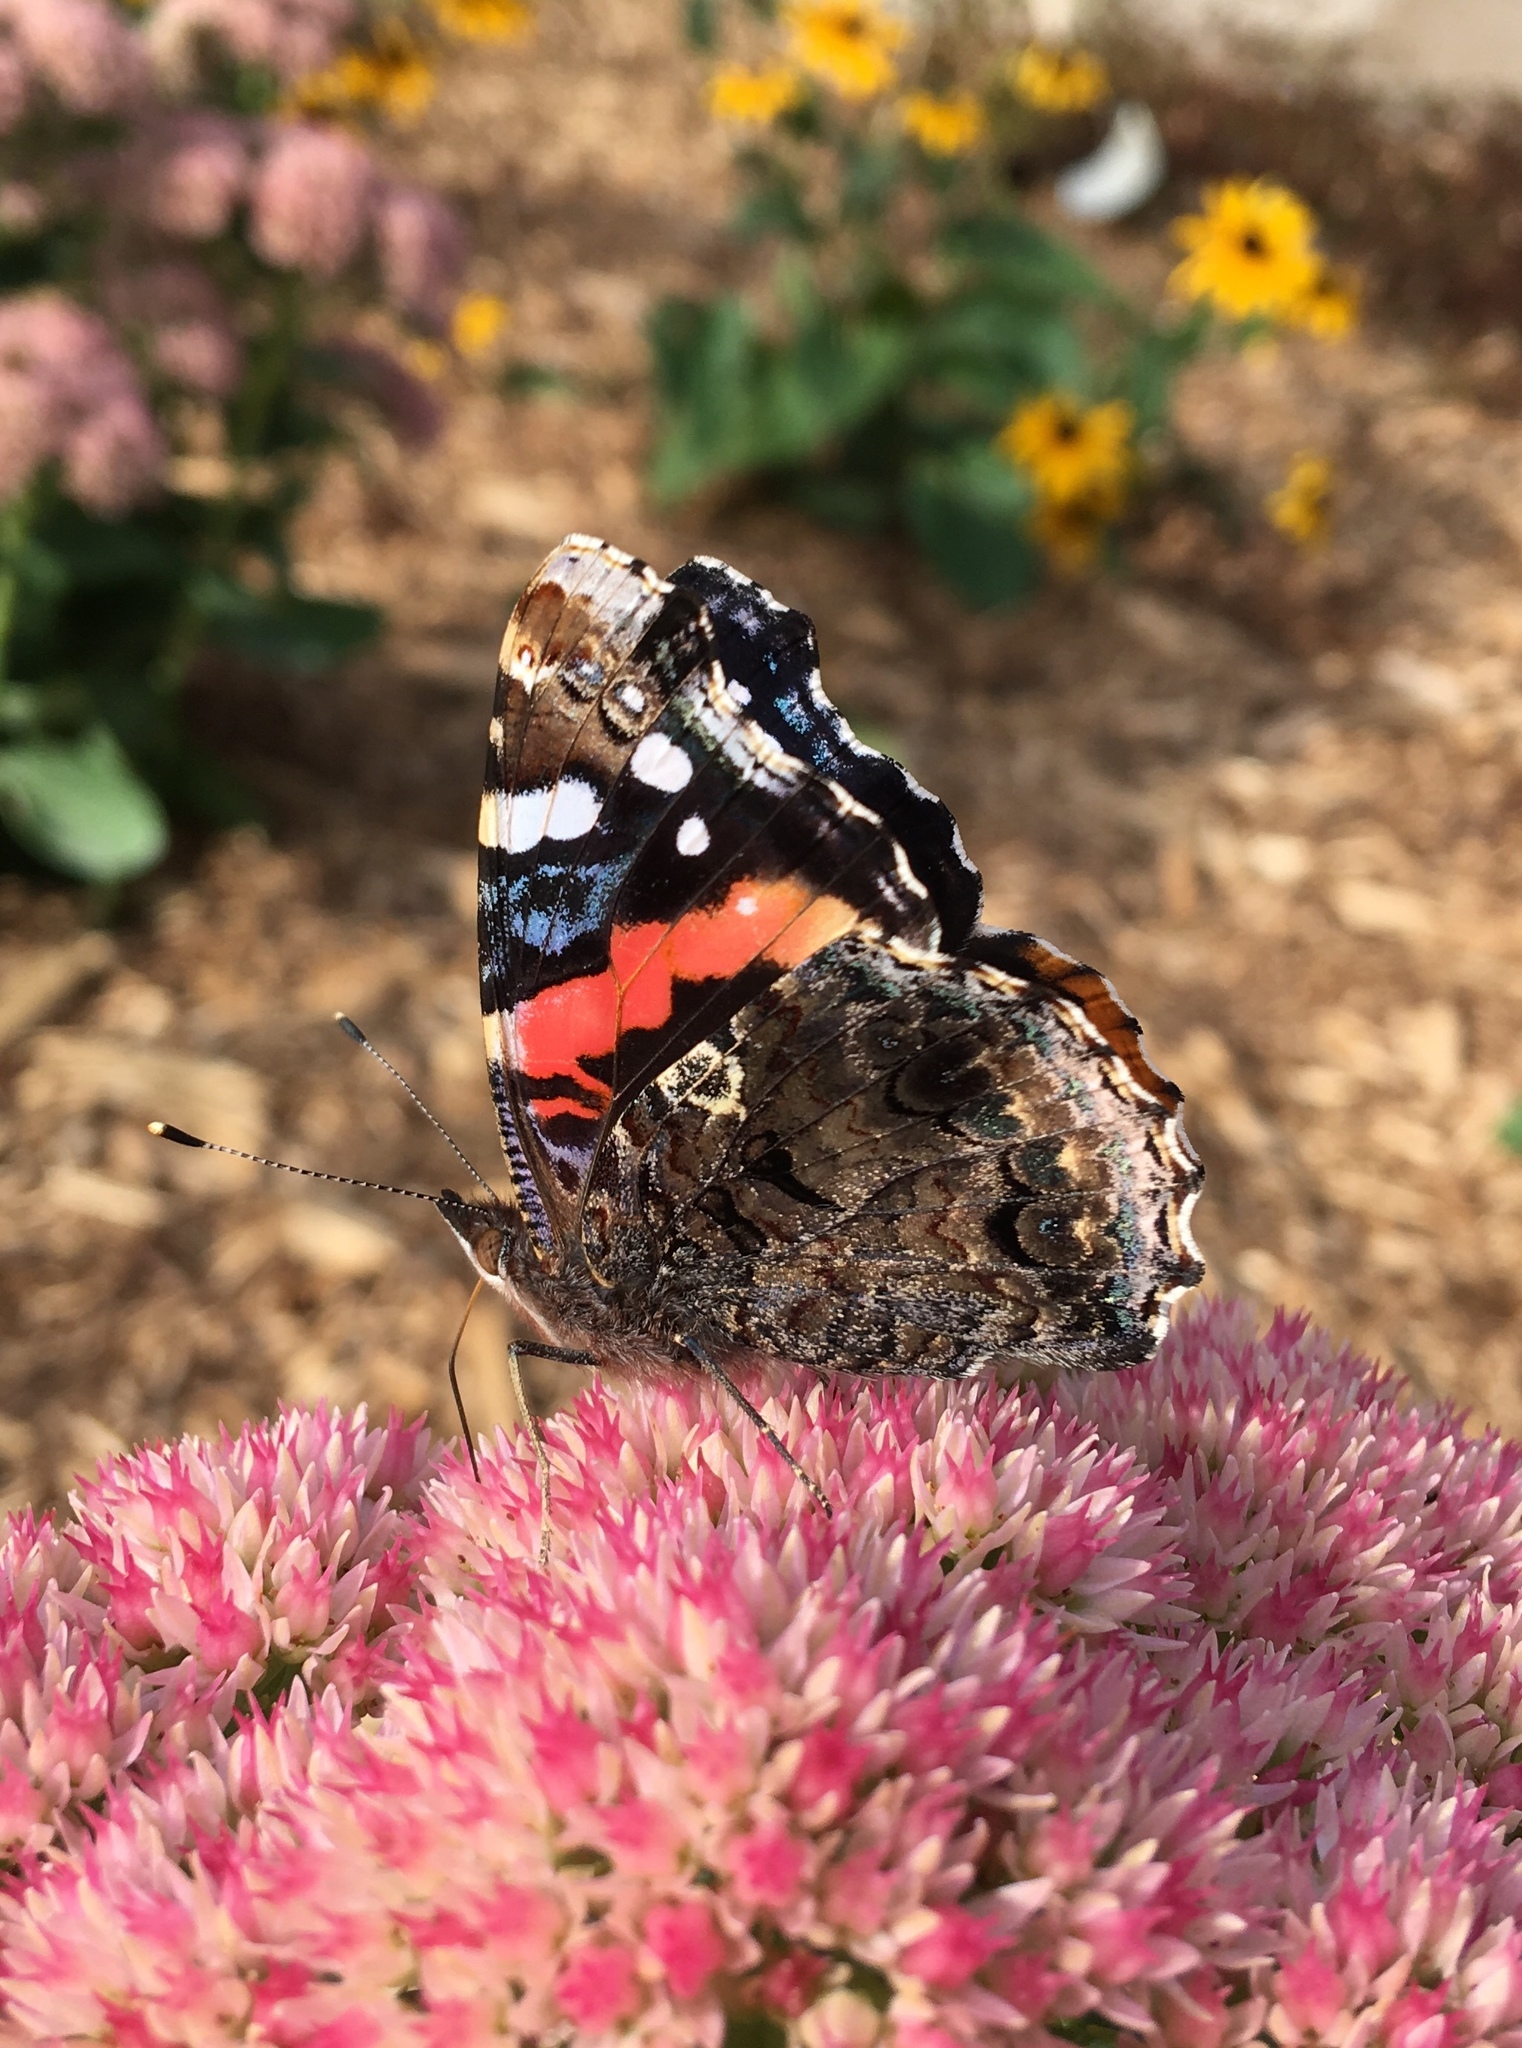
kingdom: Animalia
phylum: Arthropoda
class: Insecta
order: Lepidoptera
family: Nymphalidae
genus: Vanessa
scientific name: Vanessa atalanta
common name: Red admiral
